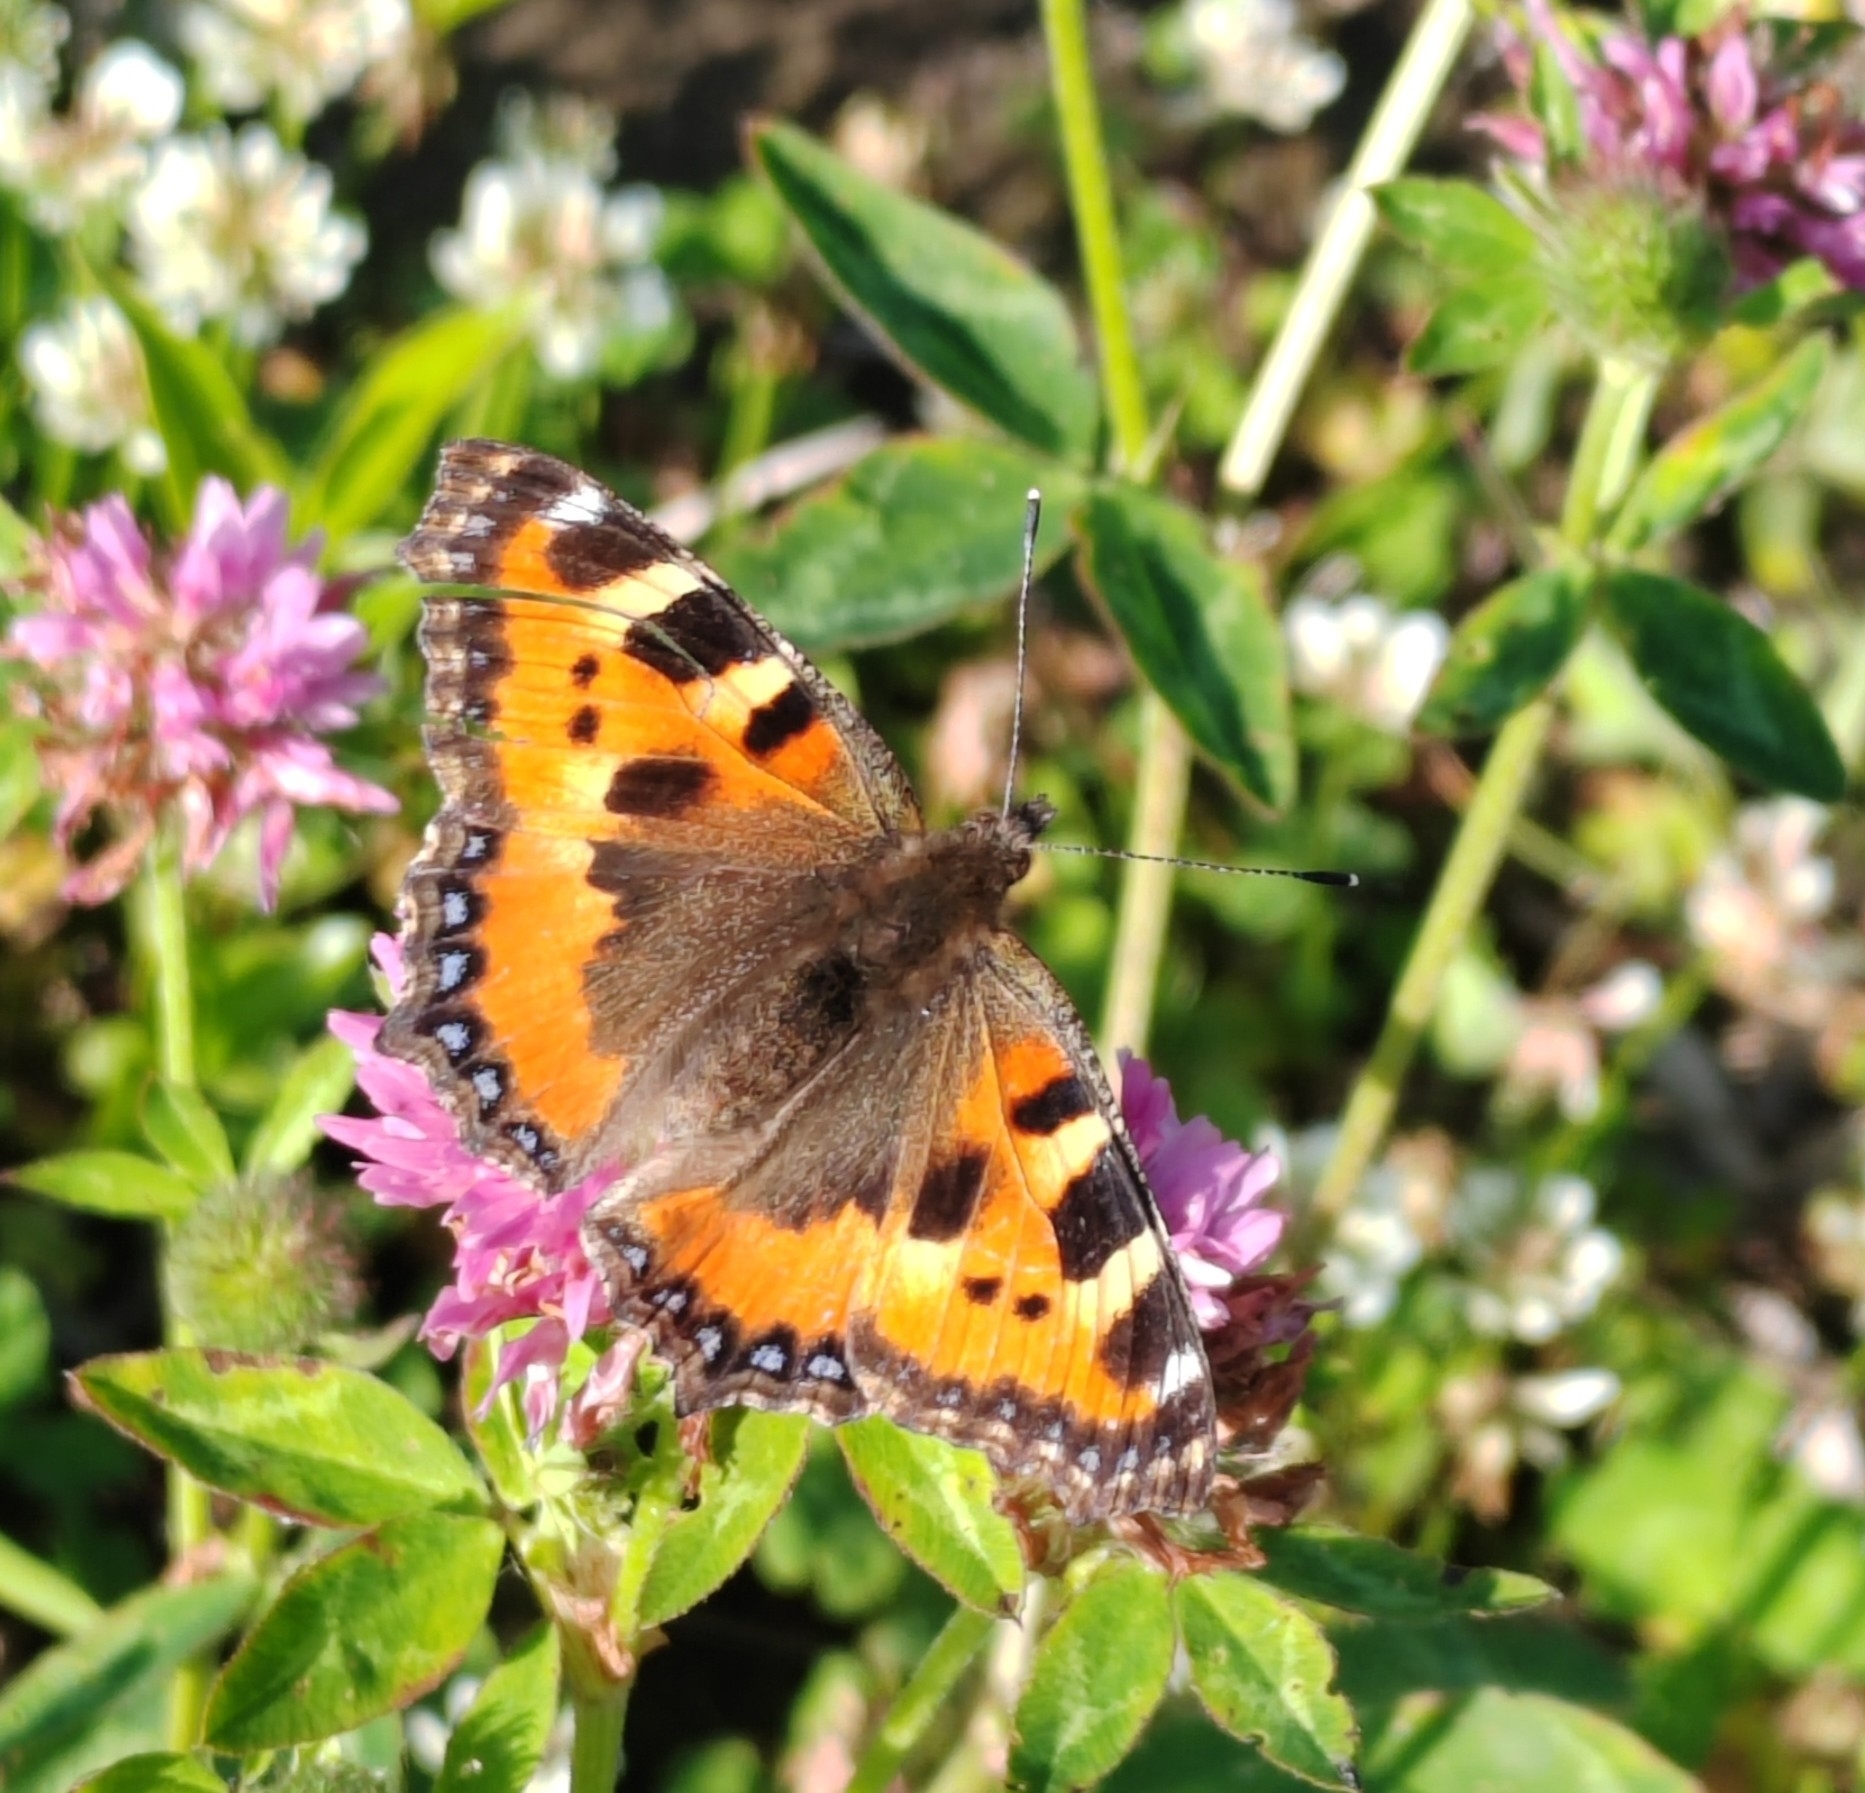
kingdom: Animalia
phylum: Arthropoda
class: Insecta
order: Lepidoptera
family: Nymphalidae
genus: Aglais
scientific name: Aglais urticae
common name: Small tortoiseshell
